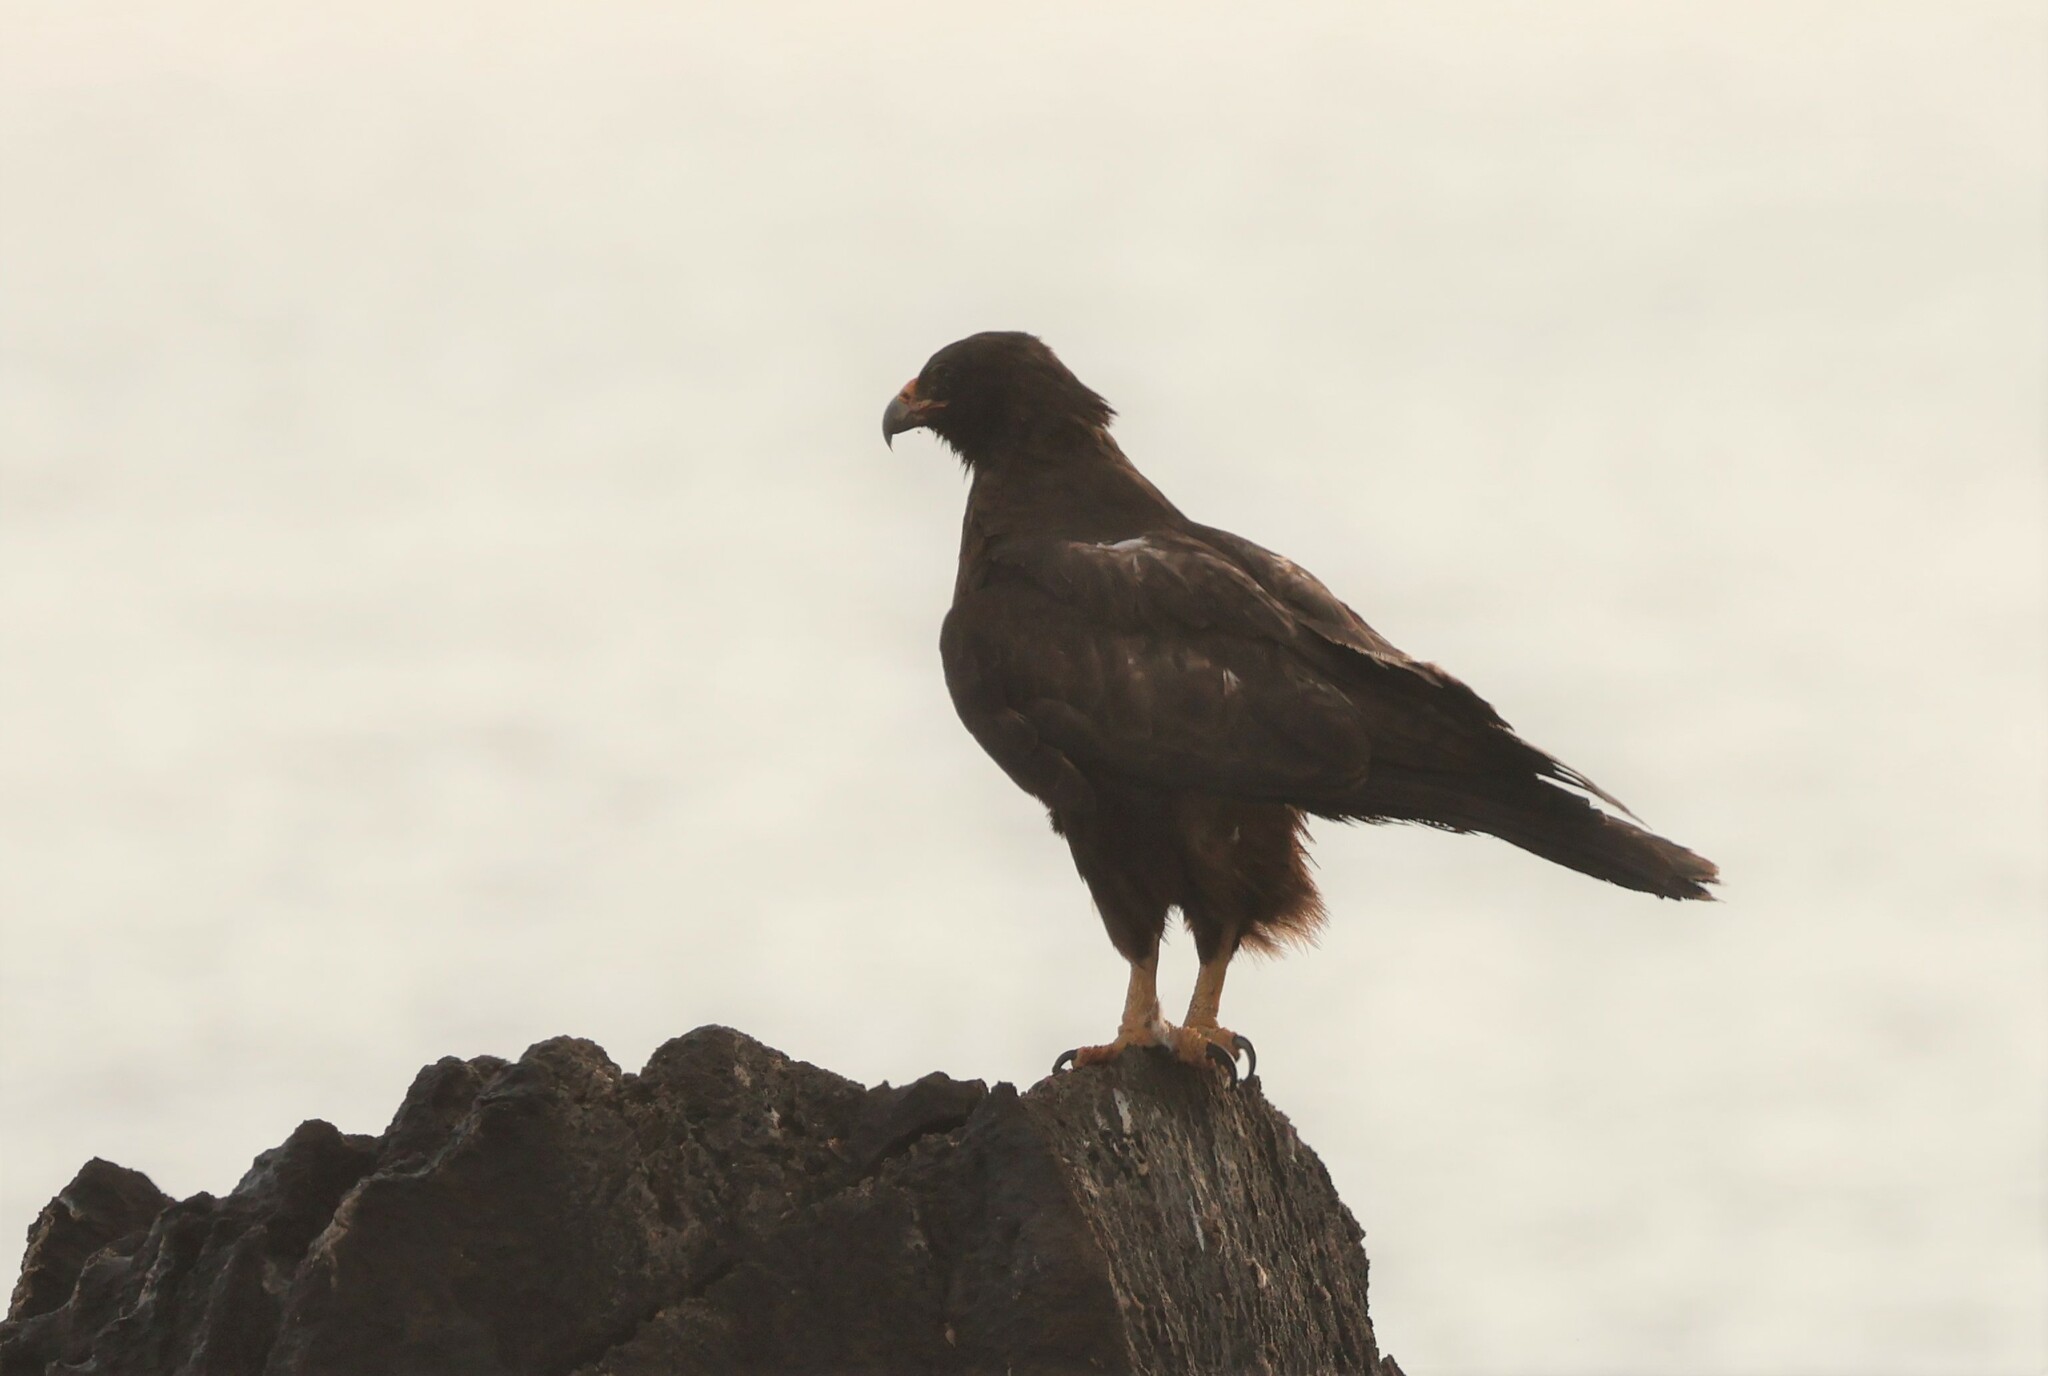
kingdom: Animalia
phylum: Chordata
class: Aves
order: Accipitriformes
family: Accipitridae
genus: Buteo
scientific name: Buteo galapagoensis
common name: Galapagos hawk
